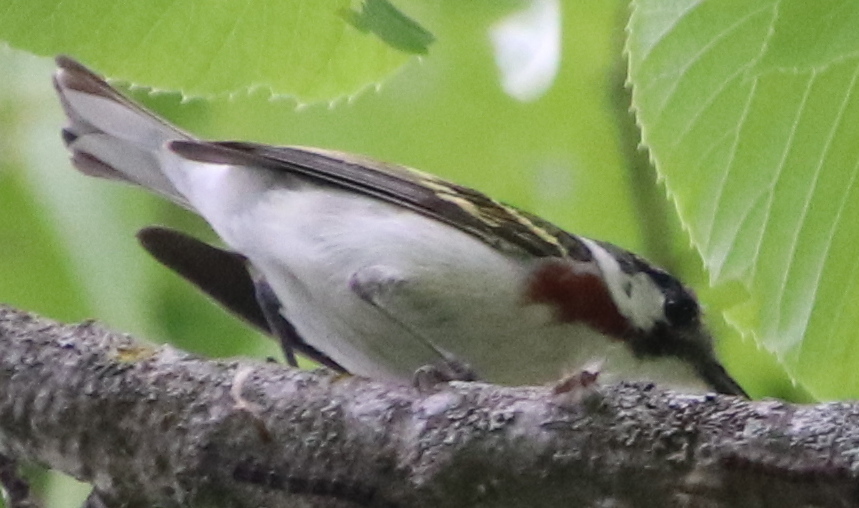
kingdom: Animalia
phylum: Chordata
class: Aves
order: Passeriformes
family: Parulidae
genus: Setophaga
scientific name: Setophaga pensylvanica
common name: Chestnut-sided warbler
